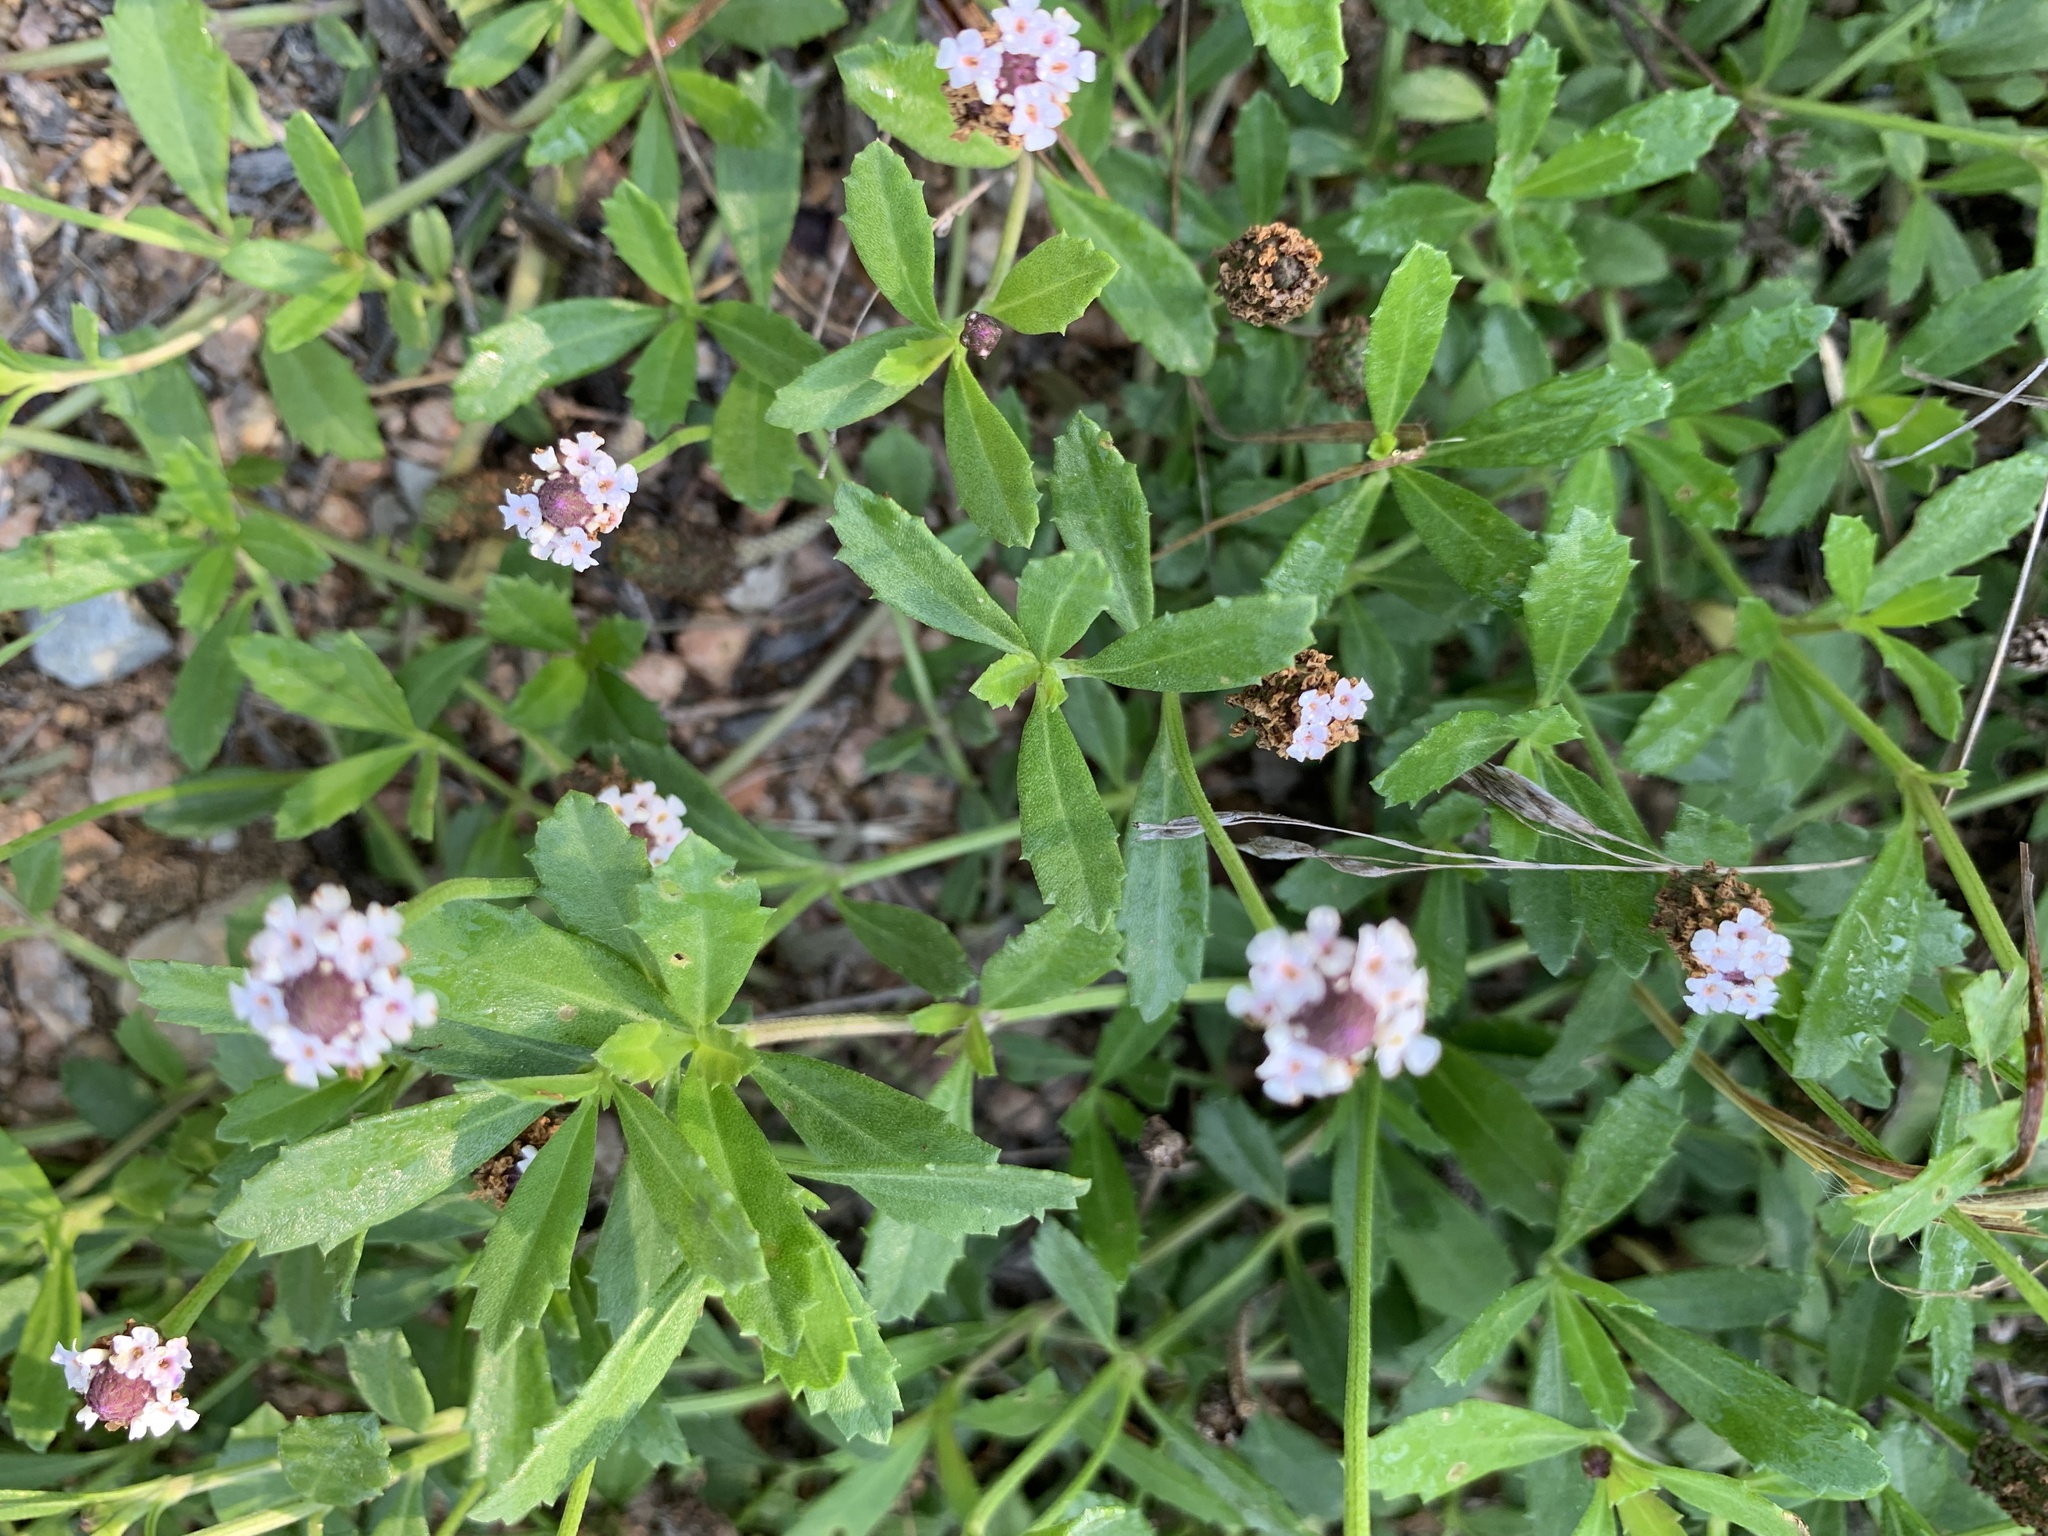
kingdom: Plantae
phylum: Tracheophyta
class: Magnoliopsida
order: Lamiales
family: Verbenaceae
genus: Phyla
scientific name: Phyla nodiflora
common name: Frogfruit
